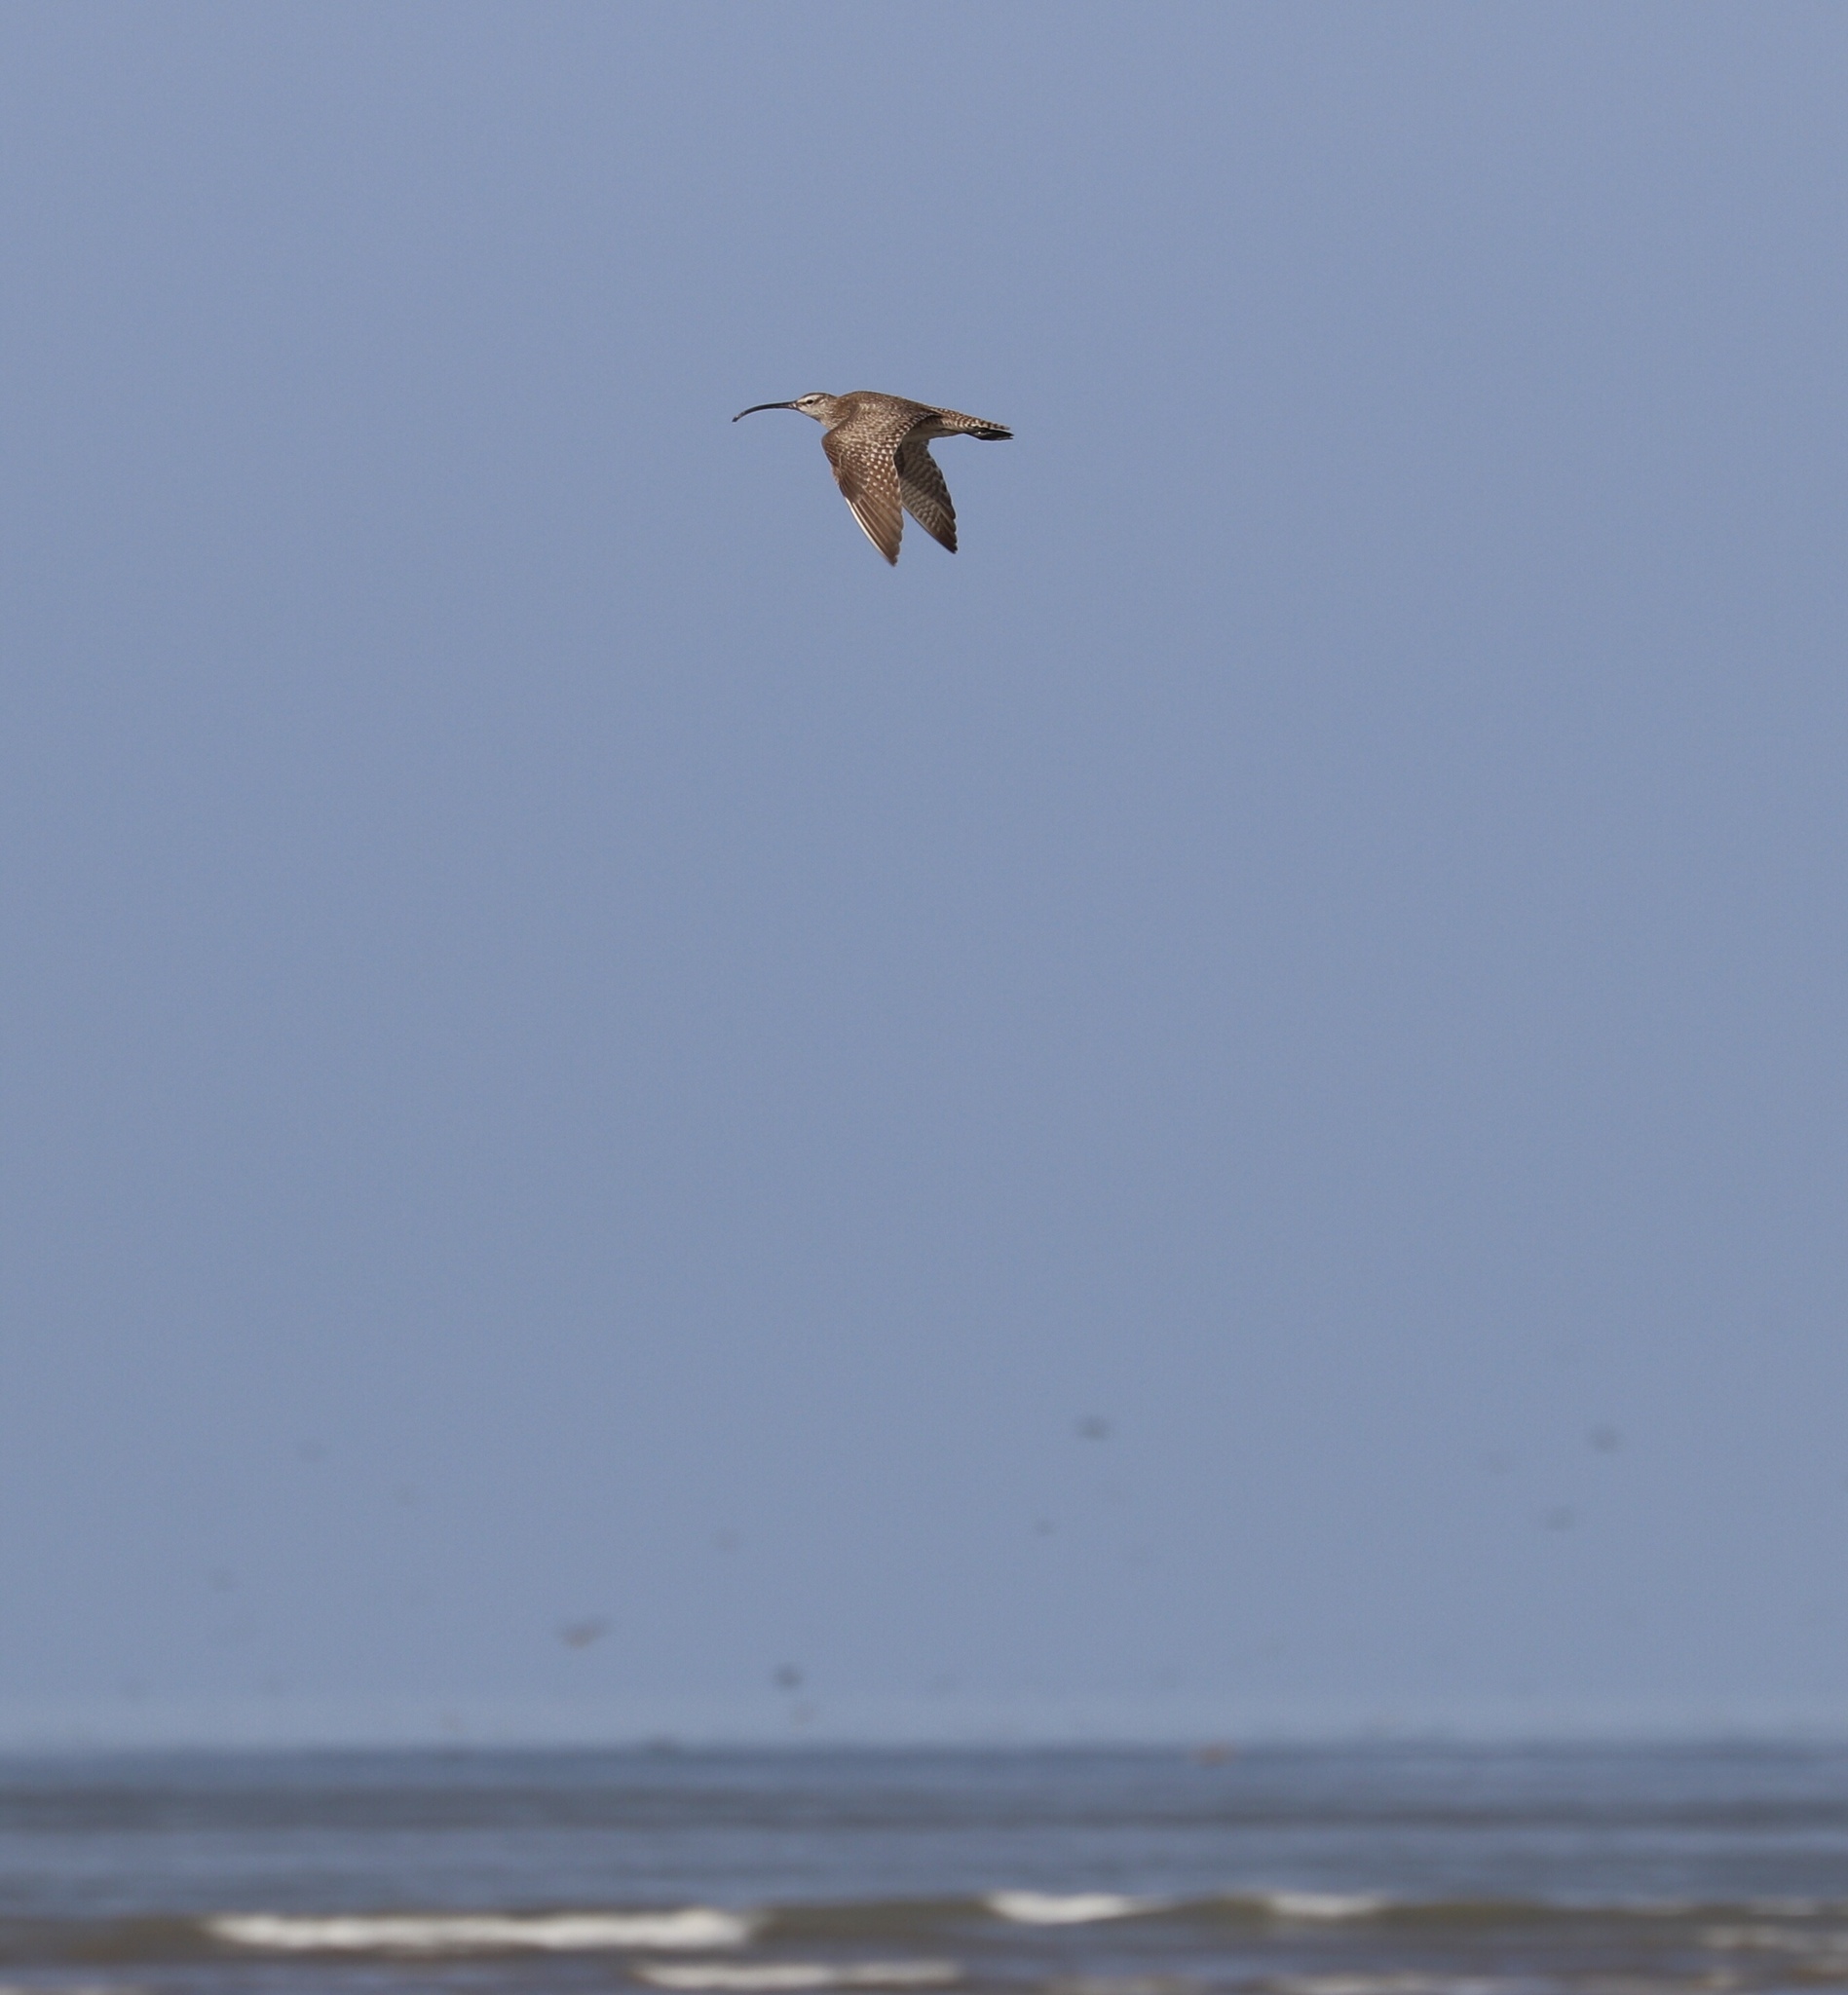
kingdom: Animalia
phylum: Chordata
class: Aves
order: Charadriiformes
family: Scolopacidae
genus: Numenius
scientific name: Numenius phaeopus
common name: Whimbrel
